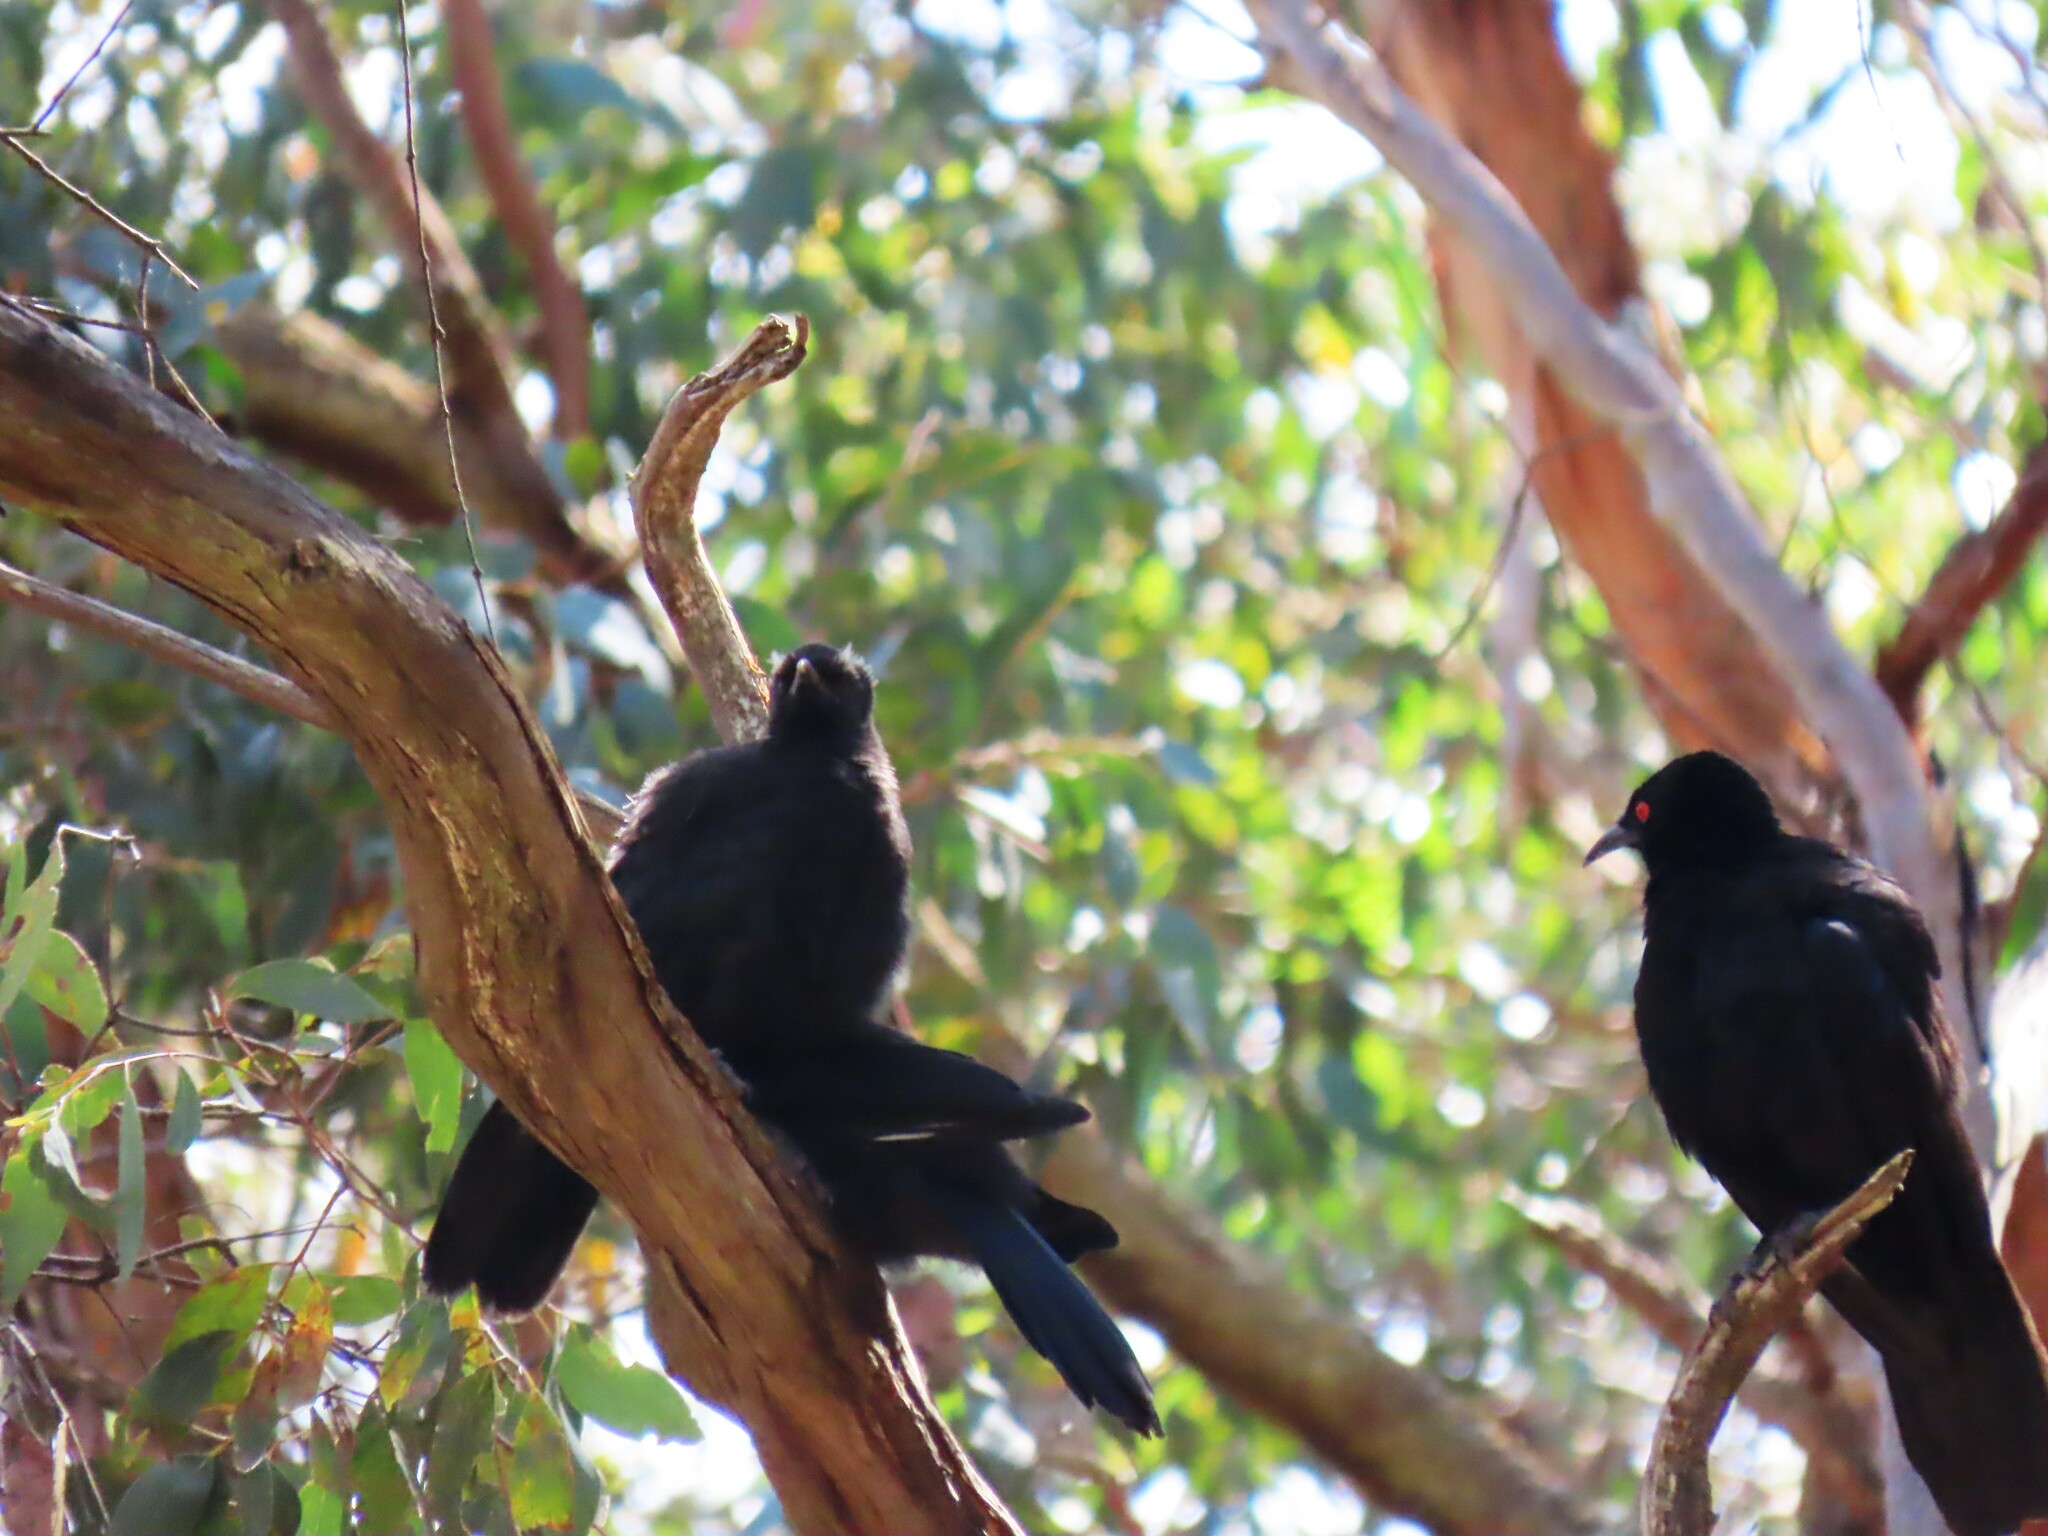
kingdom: Animalia
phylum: Chordata
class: Aves
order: Passeriformes
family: Corcoracidae
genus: Corcorax
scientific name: Corcorax melanoramphos
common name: White-winged chough
